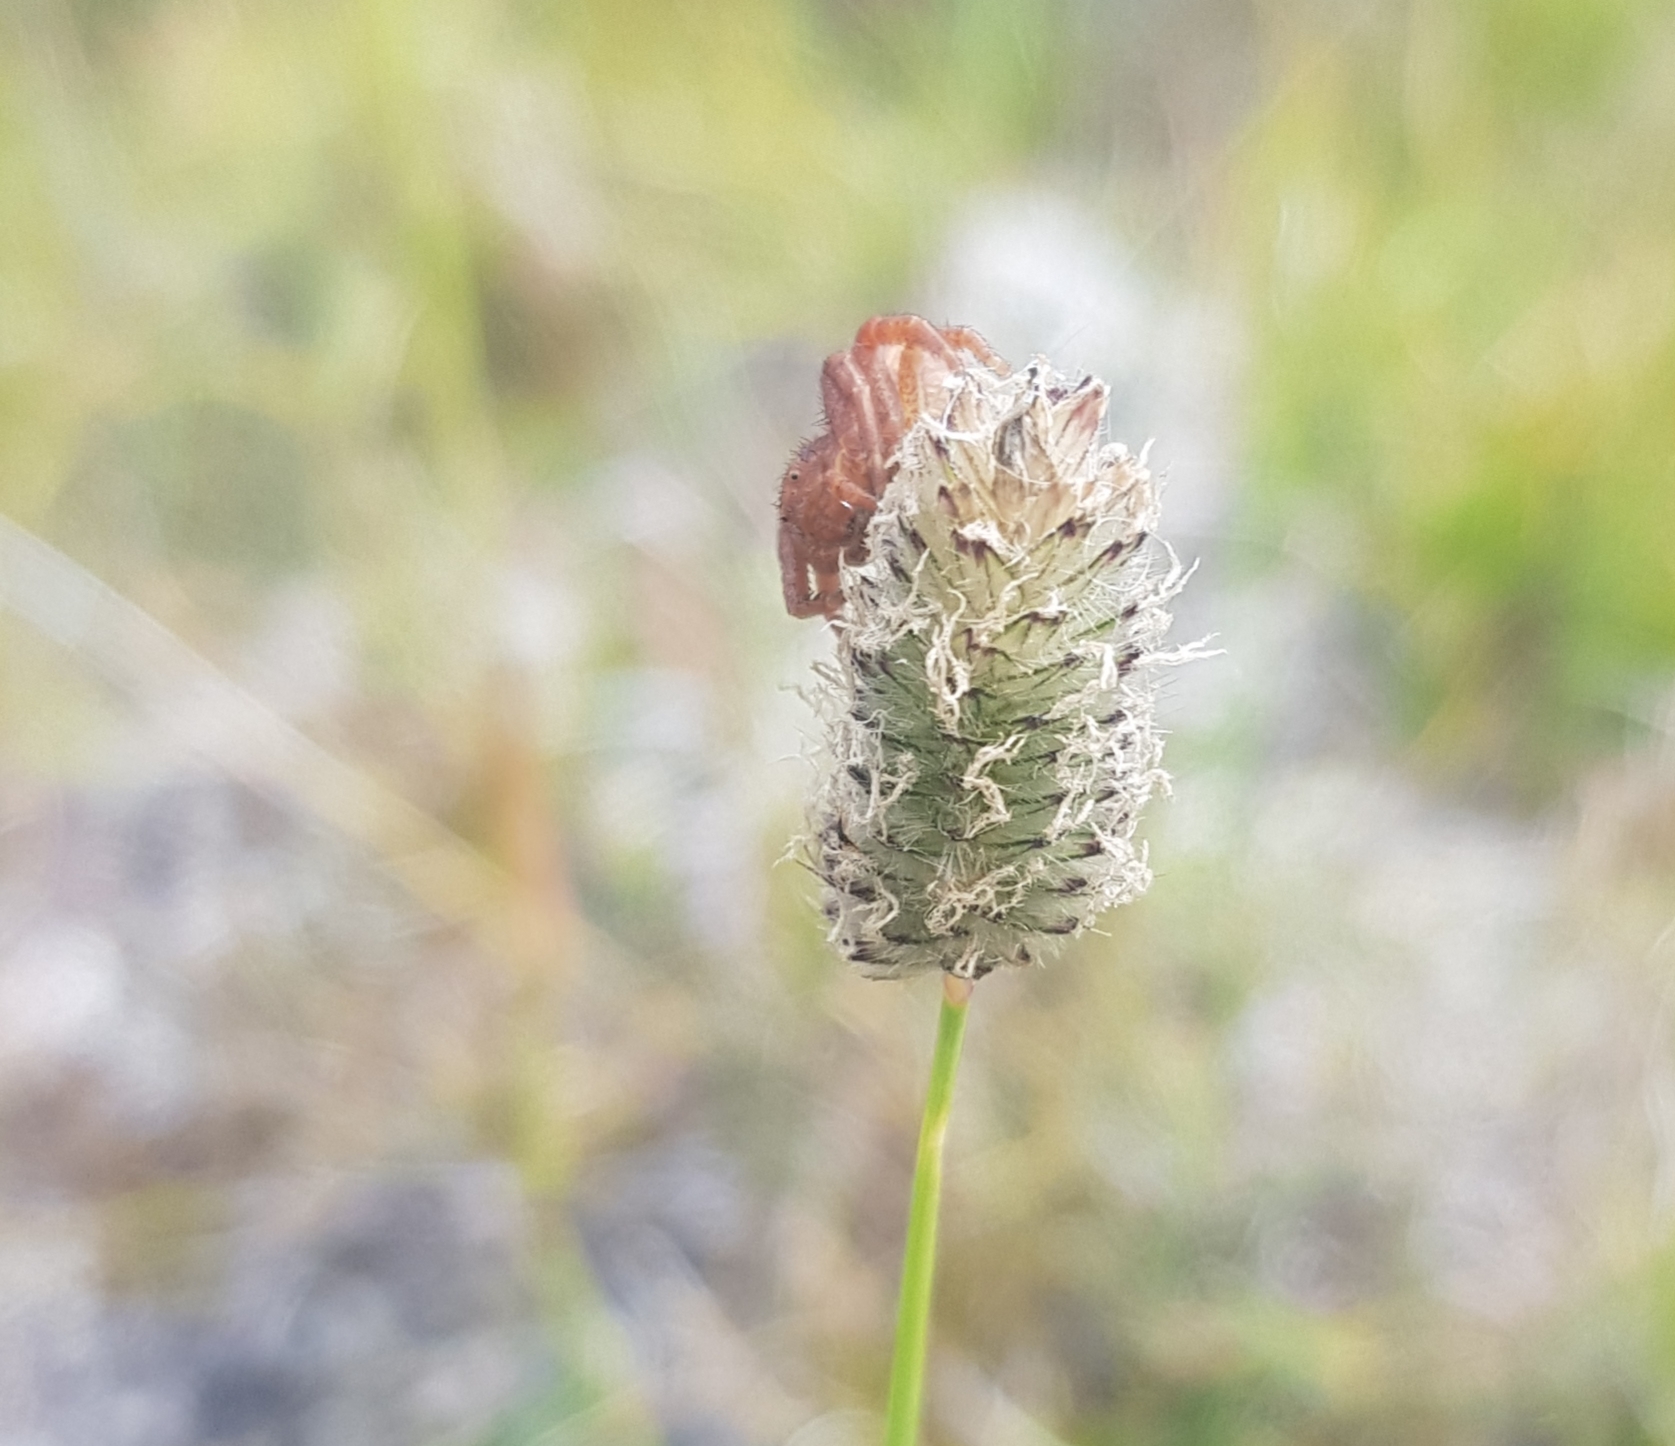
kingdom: Plantae
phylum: Tracheophyta
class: Liliopsida
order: Poales
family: Poaceae
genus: Alopecurus
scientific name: Alopecurus brachystachyus
